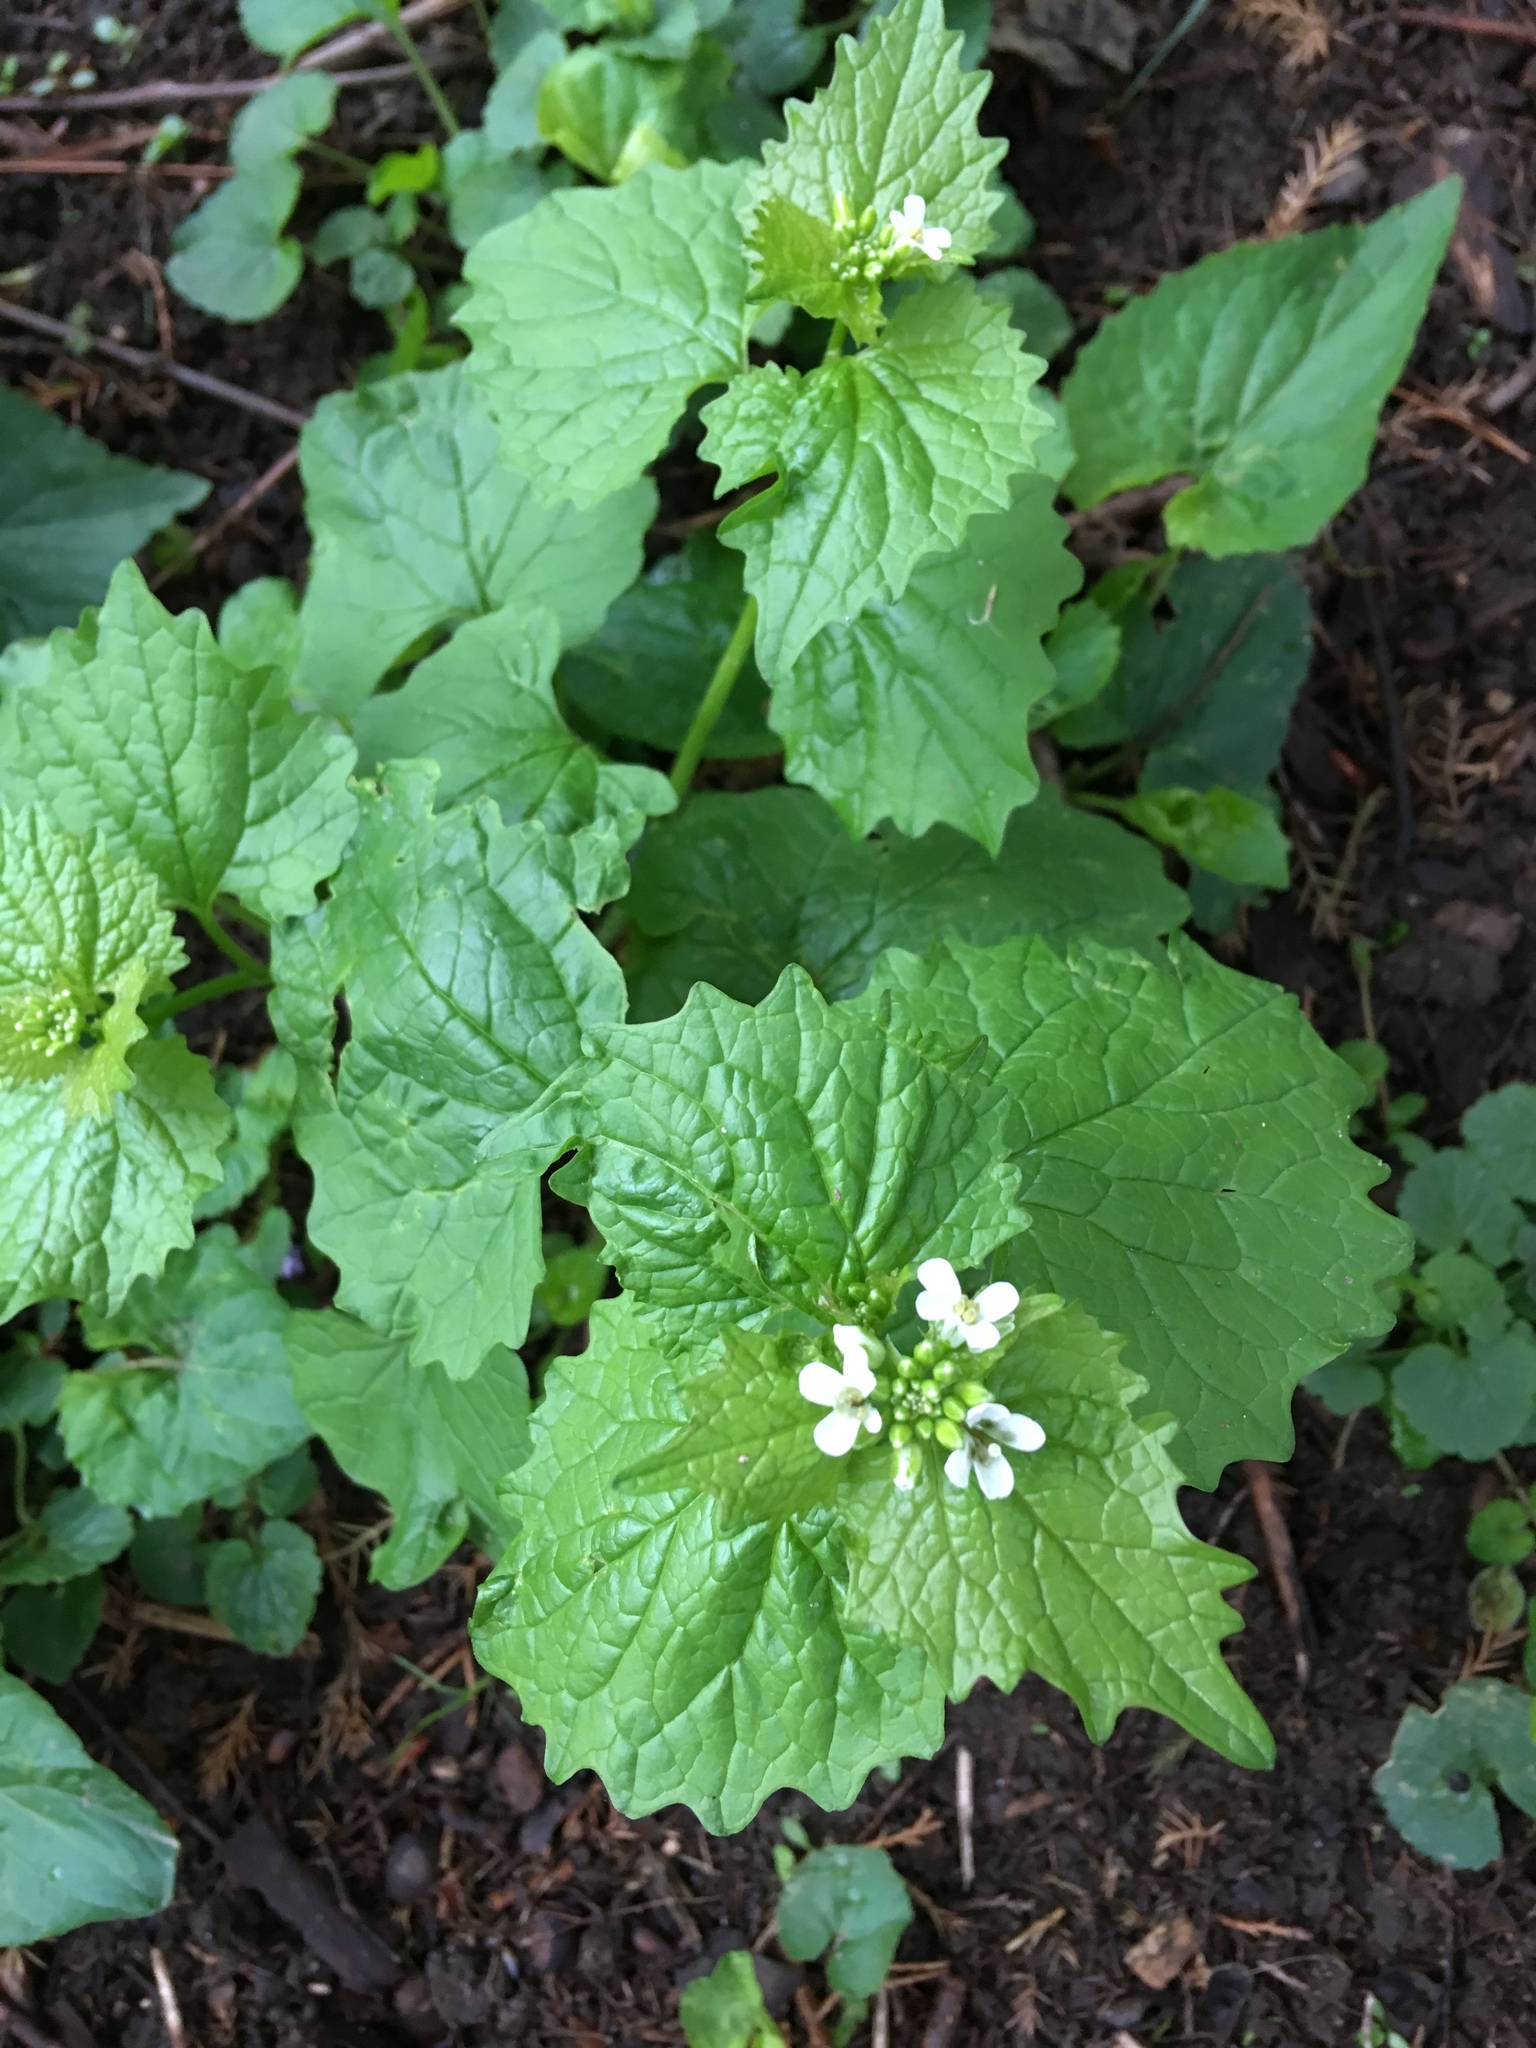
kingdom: Plantae
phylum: Tracheophyta
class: Magnoliopsida
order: Brassicales
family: Brassicaceae
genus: Alliaria
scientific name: Alliaria petiolata
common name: Garlic mustard
